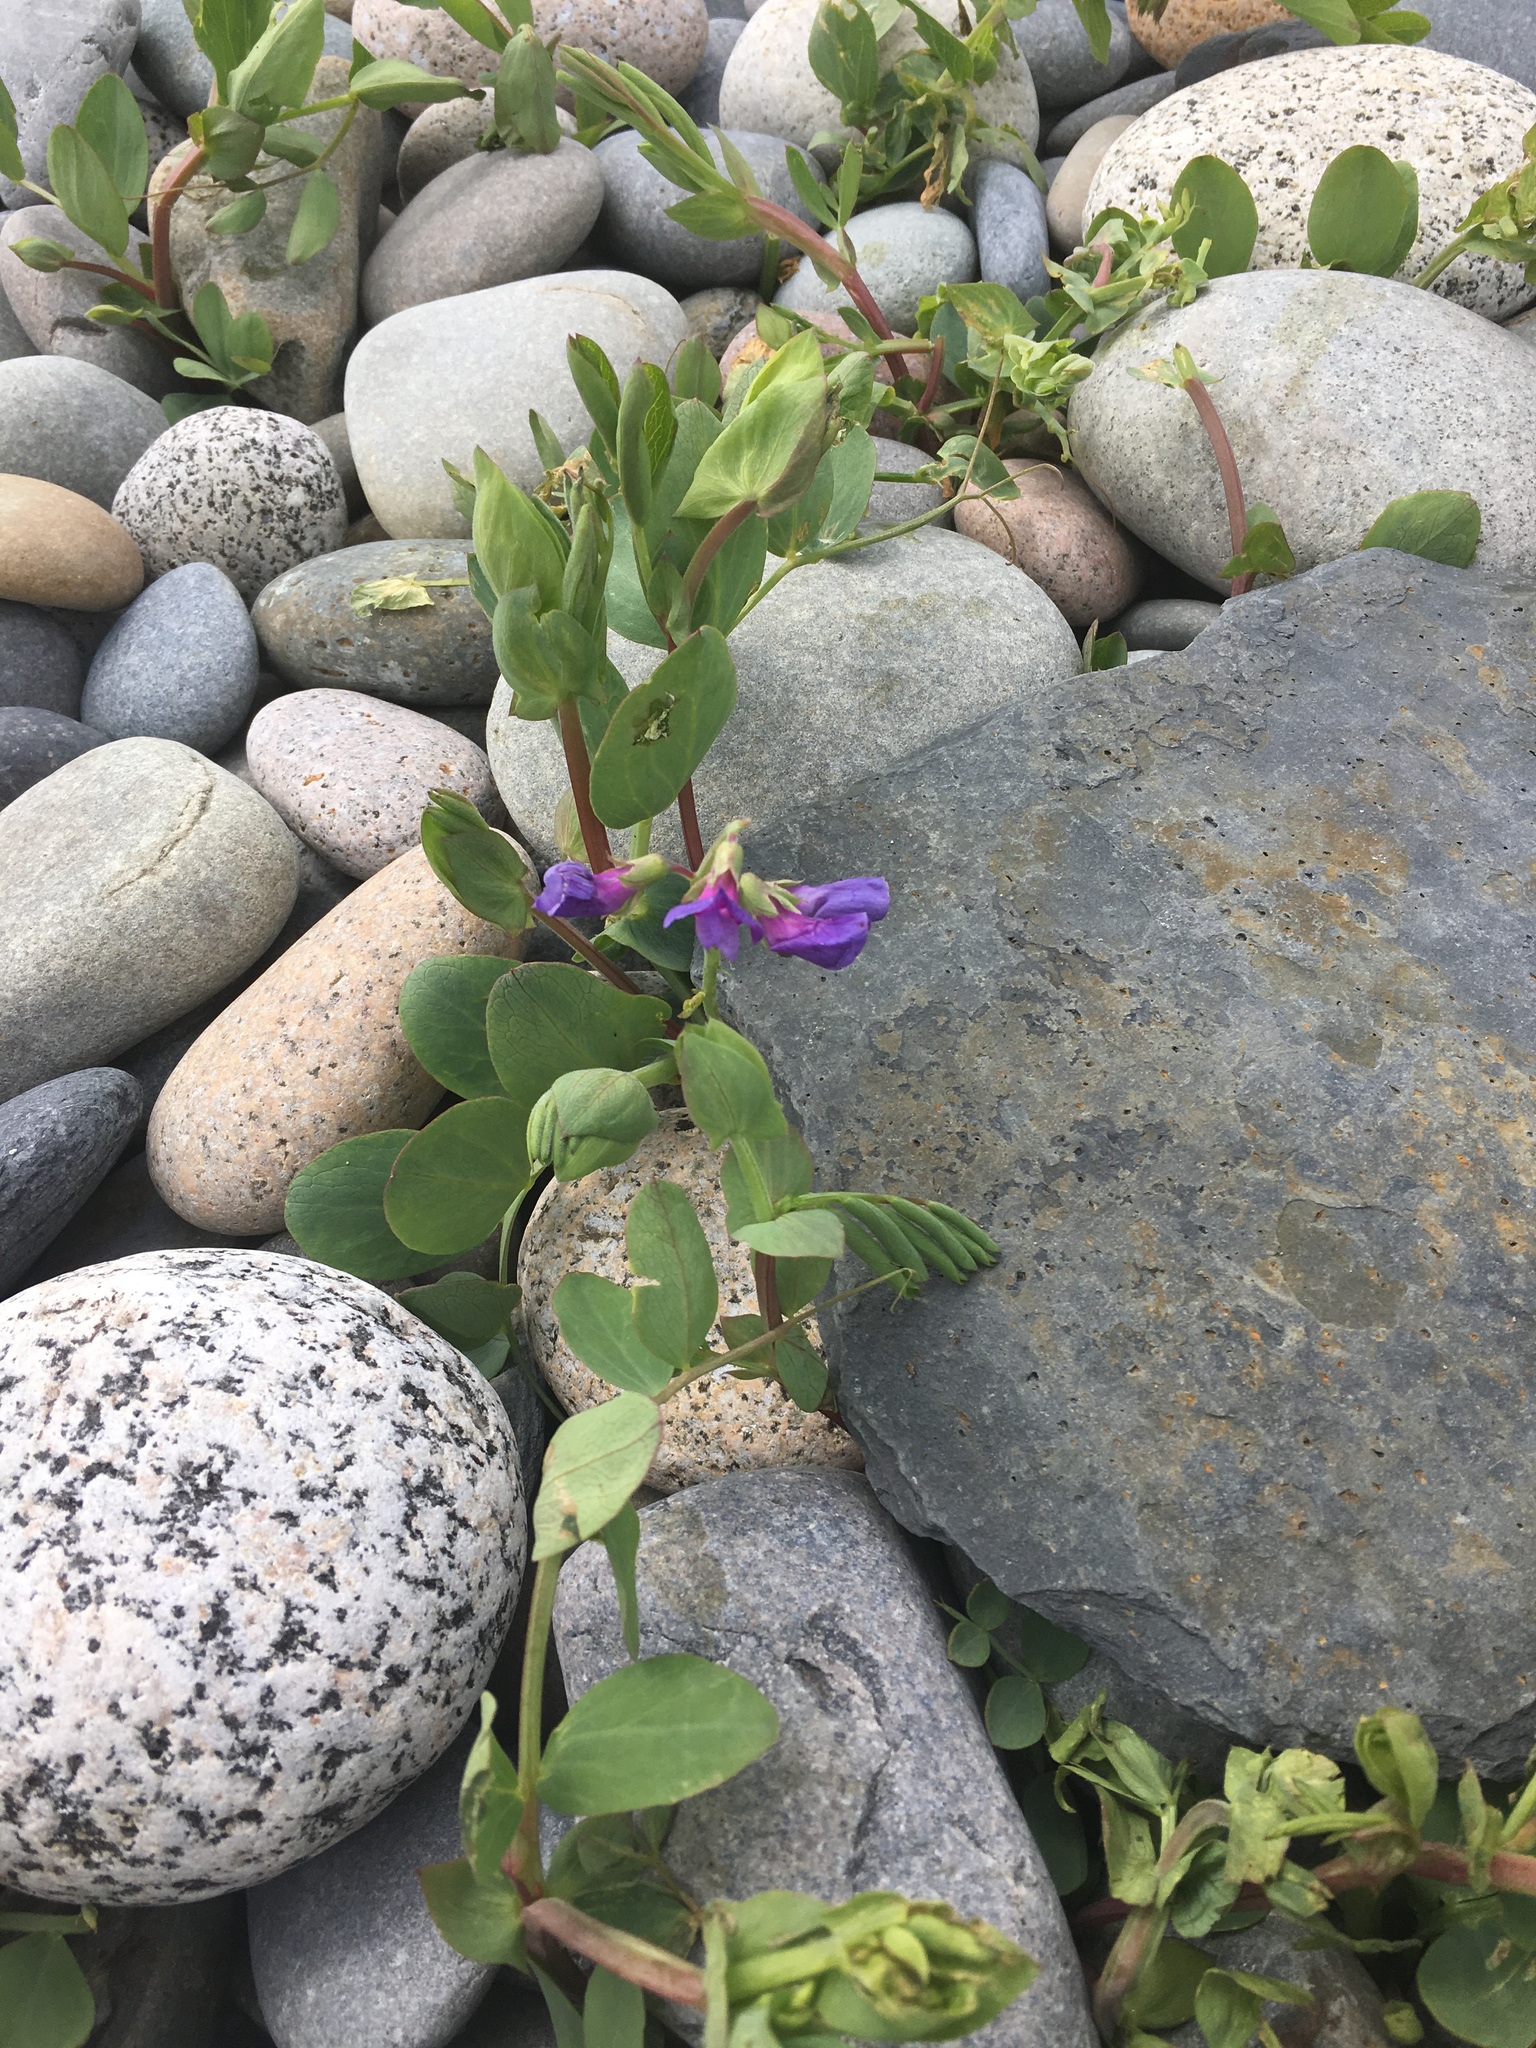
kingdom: Plantae
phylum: Tracheophyta
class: Magnoliopsida
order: Fabales
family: Fabaceae
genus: Lathyrus
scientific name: Lathyrus japonicus
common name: Sea pea
